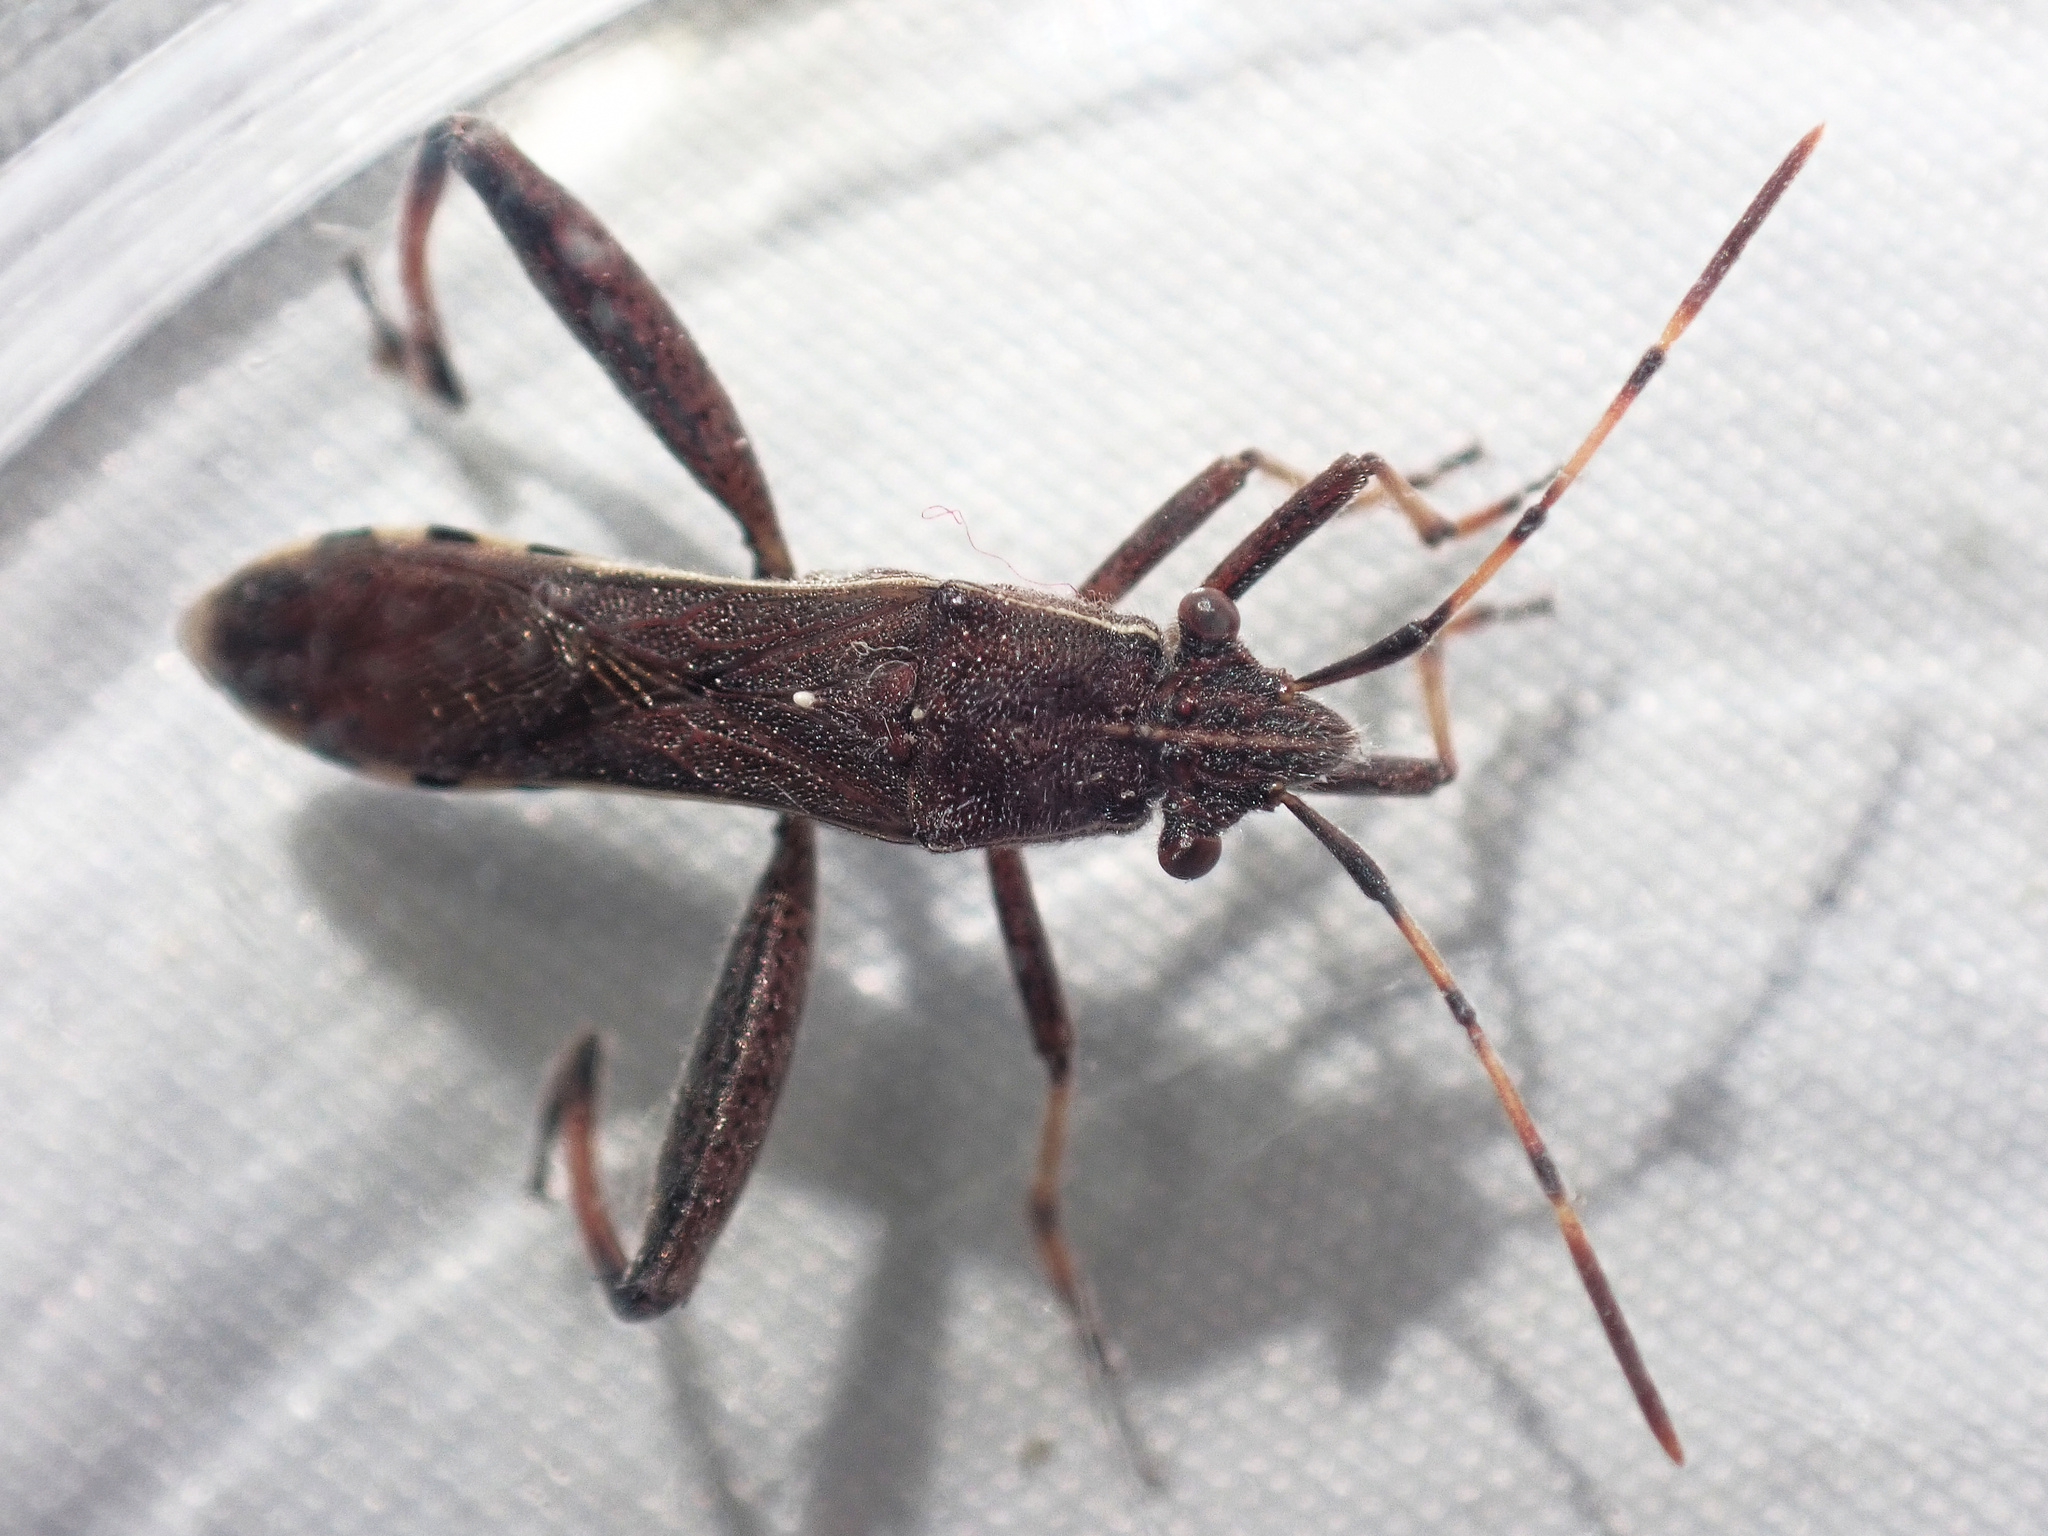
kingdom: Animalia
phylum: Arthropoda
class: Insecta
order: Hemiptera
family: Alydidae
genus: Camptopus
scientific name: Camptopus lateralis
